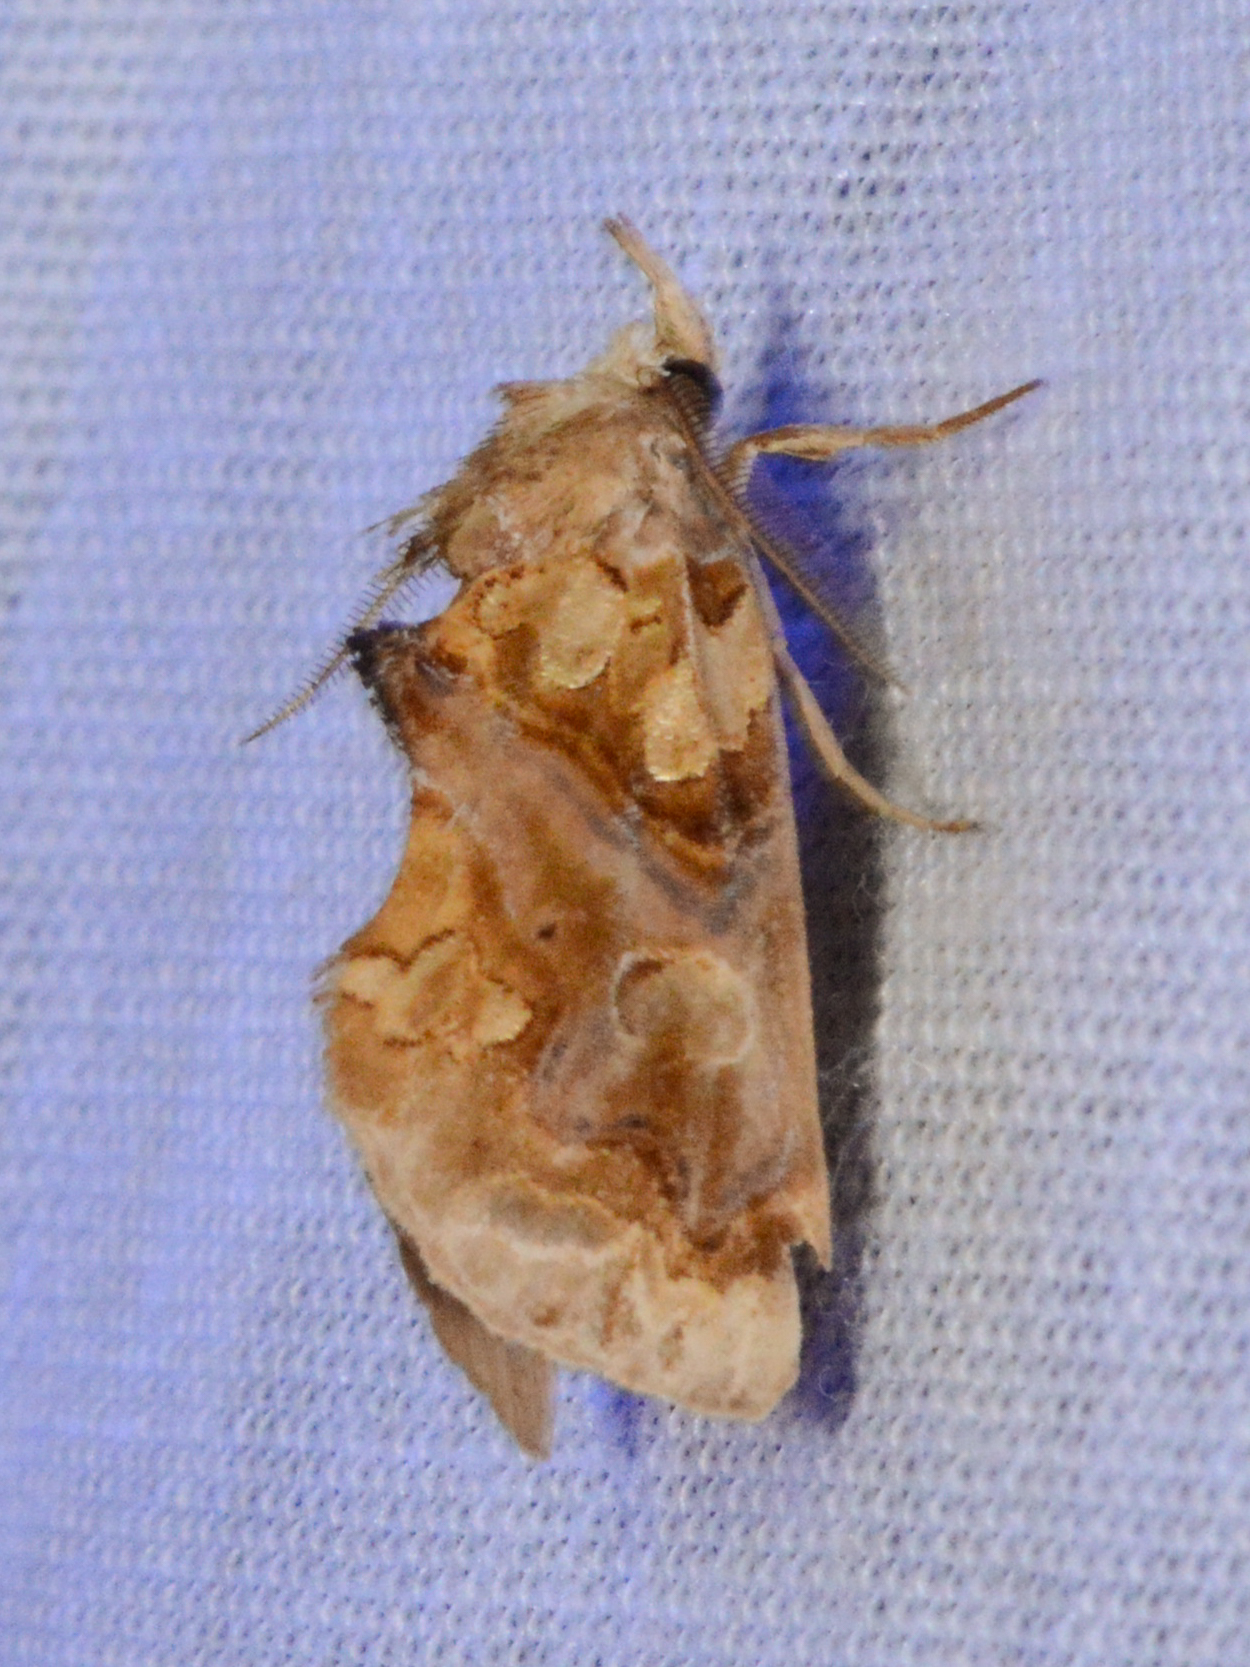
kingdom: Animalia
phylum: Arthropoda
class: Insecta
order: Lepidoptera
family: Erebidae
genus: Plusiodonta
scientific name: Plusiodonta compressipalpis
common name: Moonseed moth
